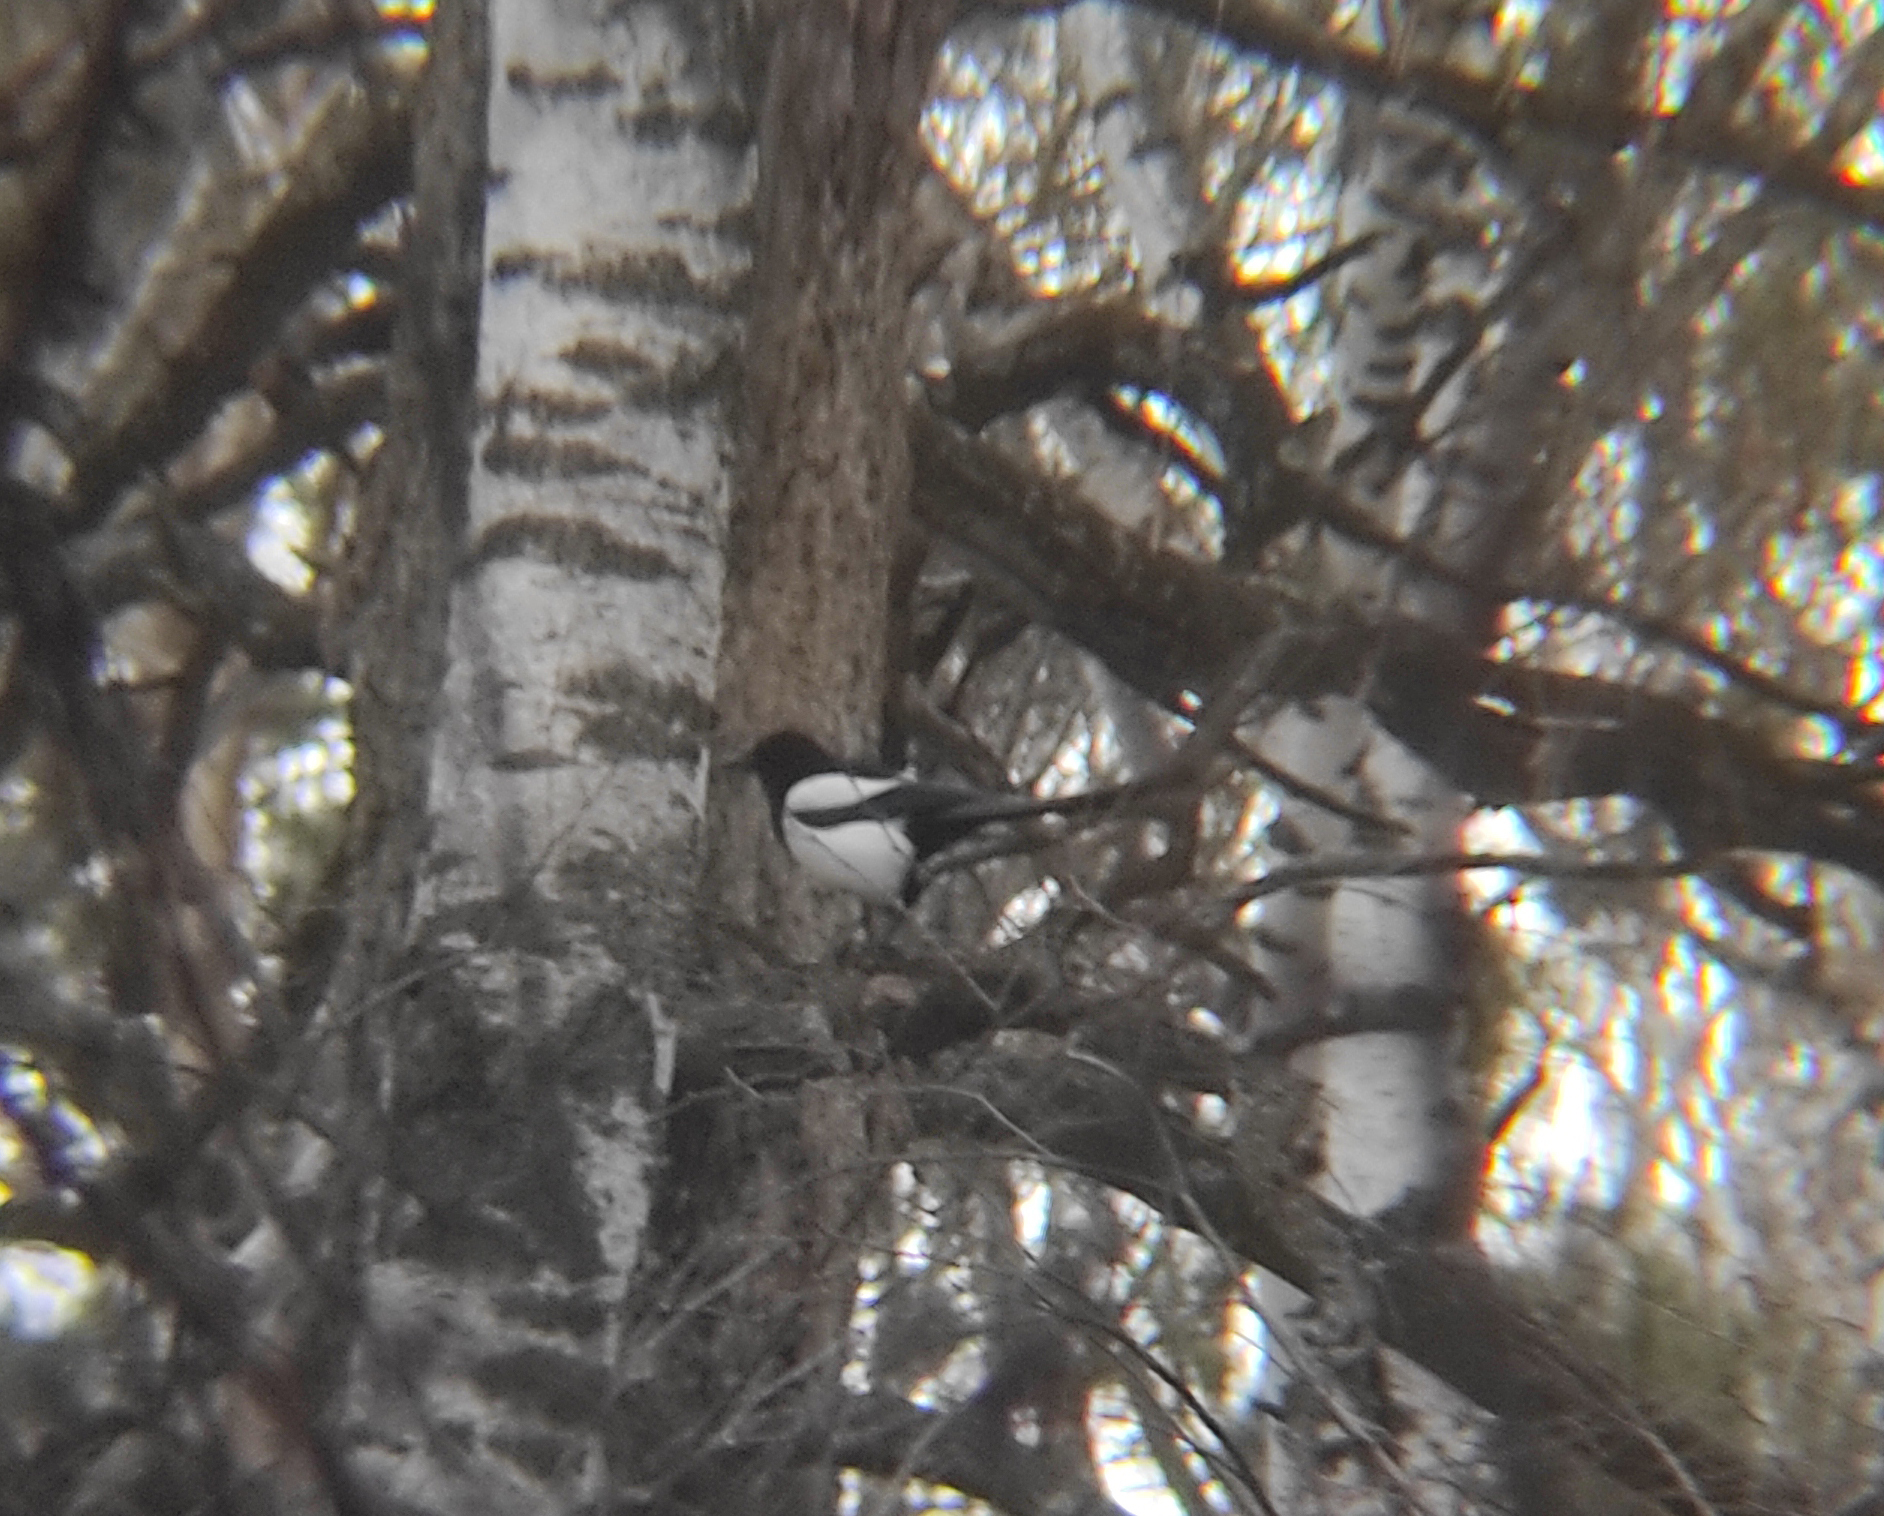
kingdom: Animalia
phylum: Chordata
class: Aves
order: Passeriformes
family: Corvidae
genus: Pica
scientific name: Pica pica
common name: Eurasian magpie
